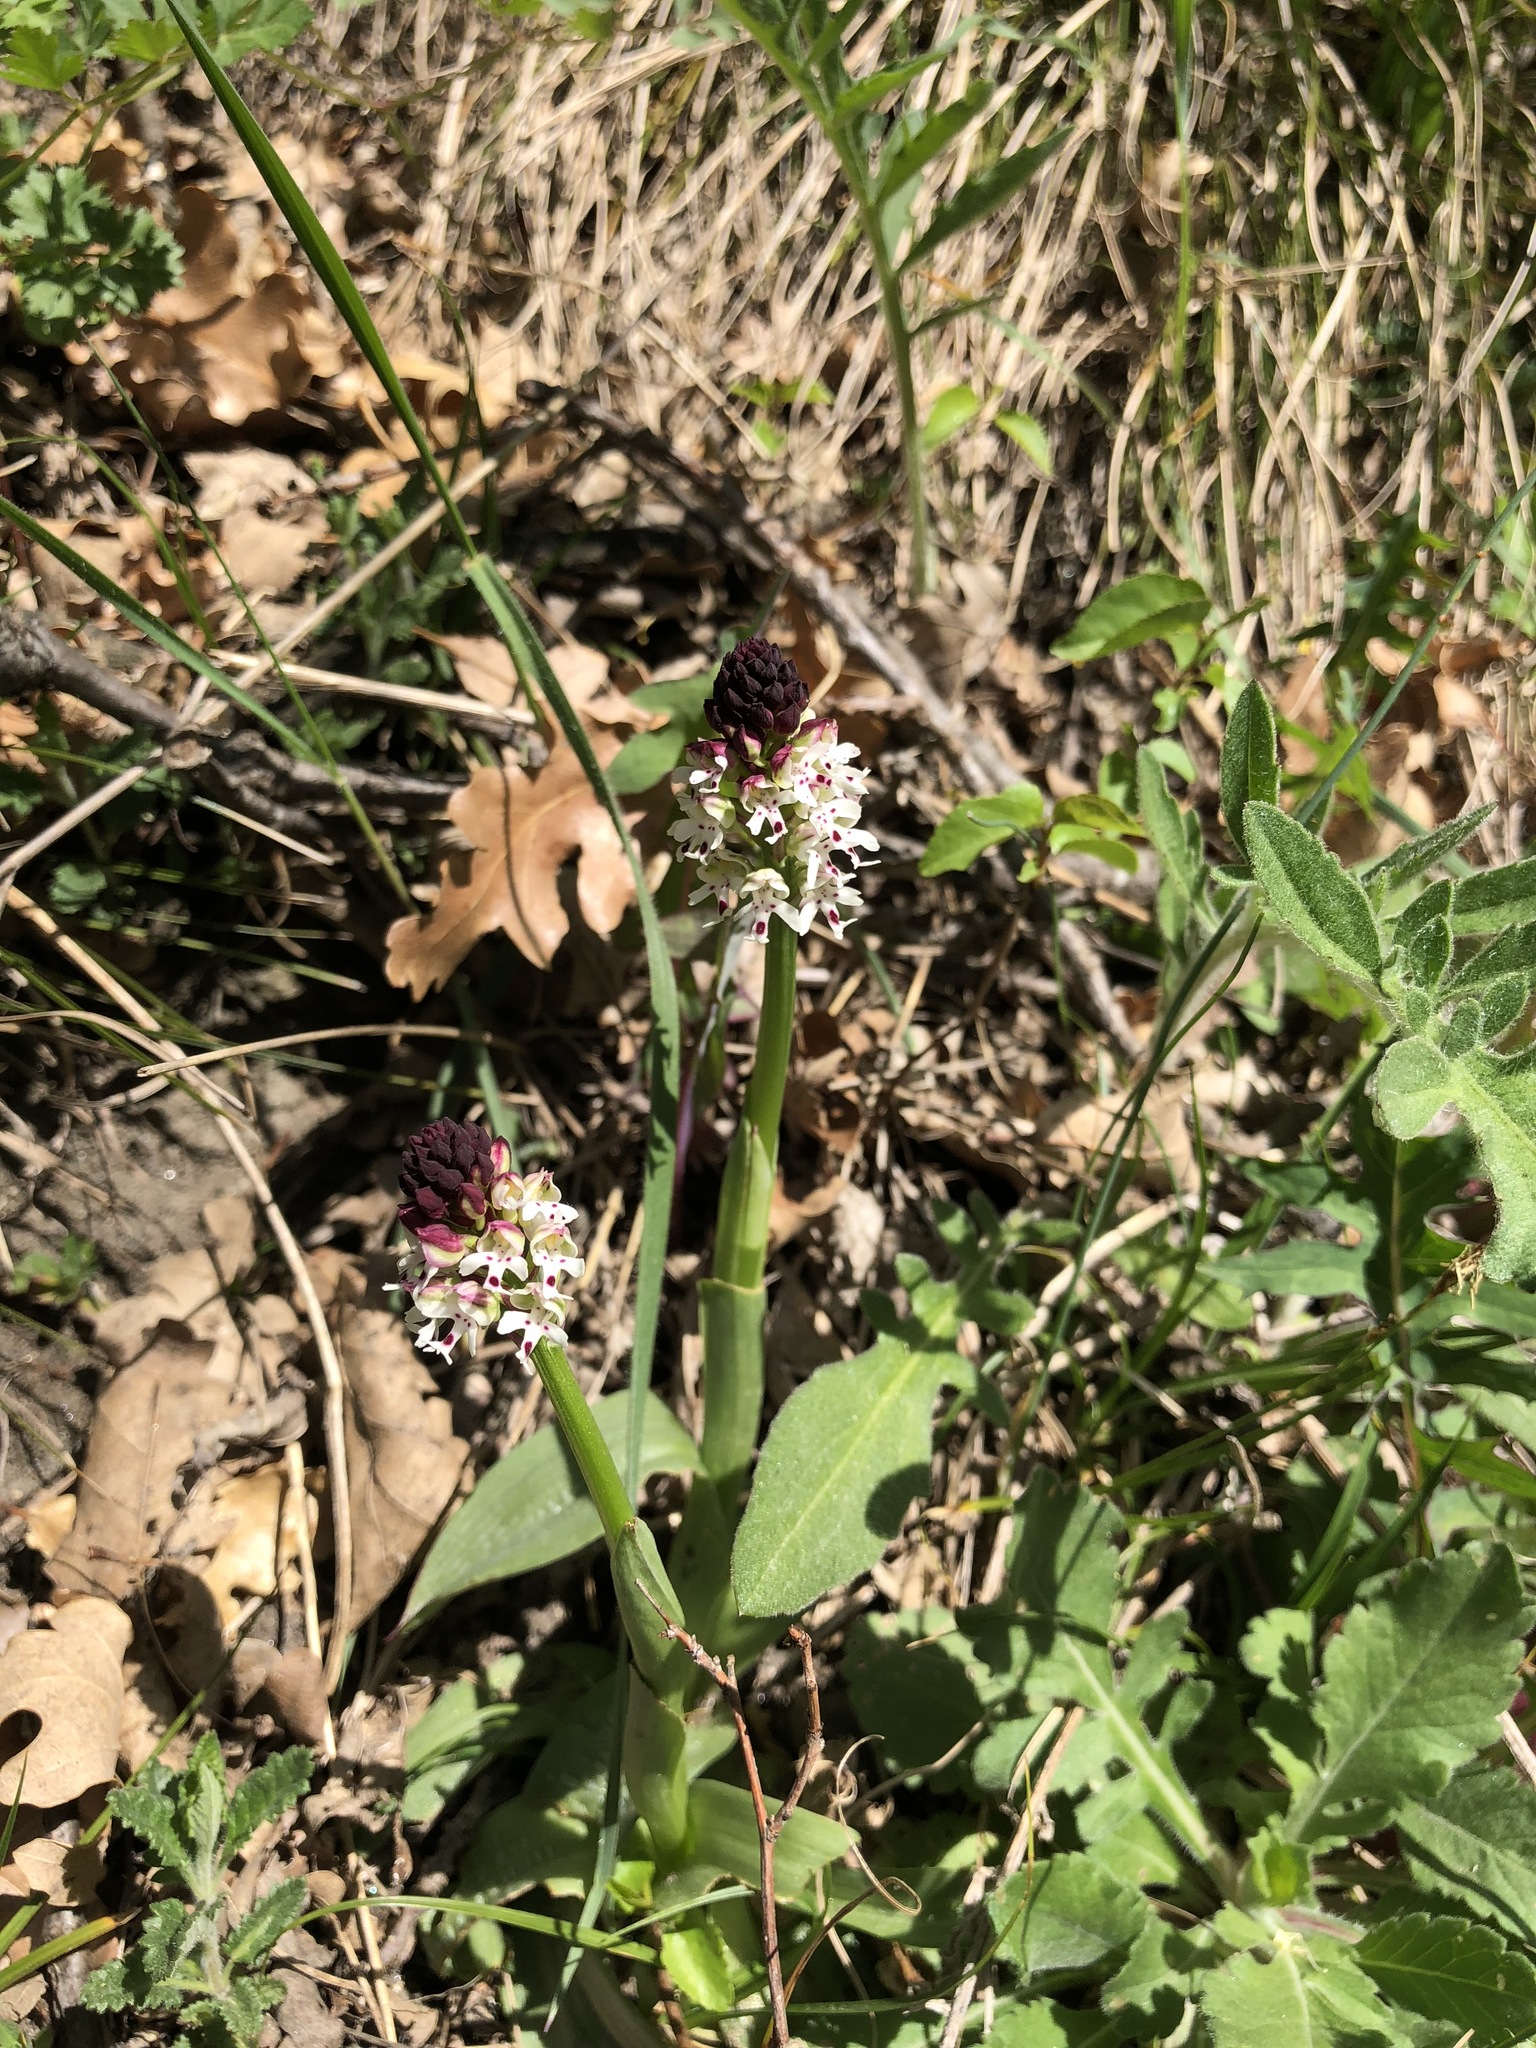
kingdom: Plantae
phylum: Tracheophyta
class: Liliopsida
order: Asparagales
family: Orchidaceae
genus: Neotinea
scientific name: Neotinea ustulata
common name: Burnt orchid
